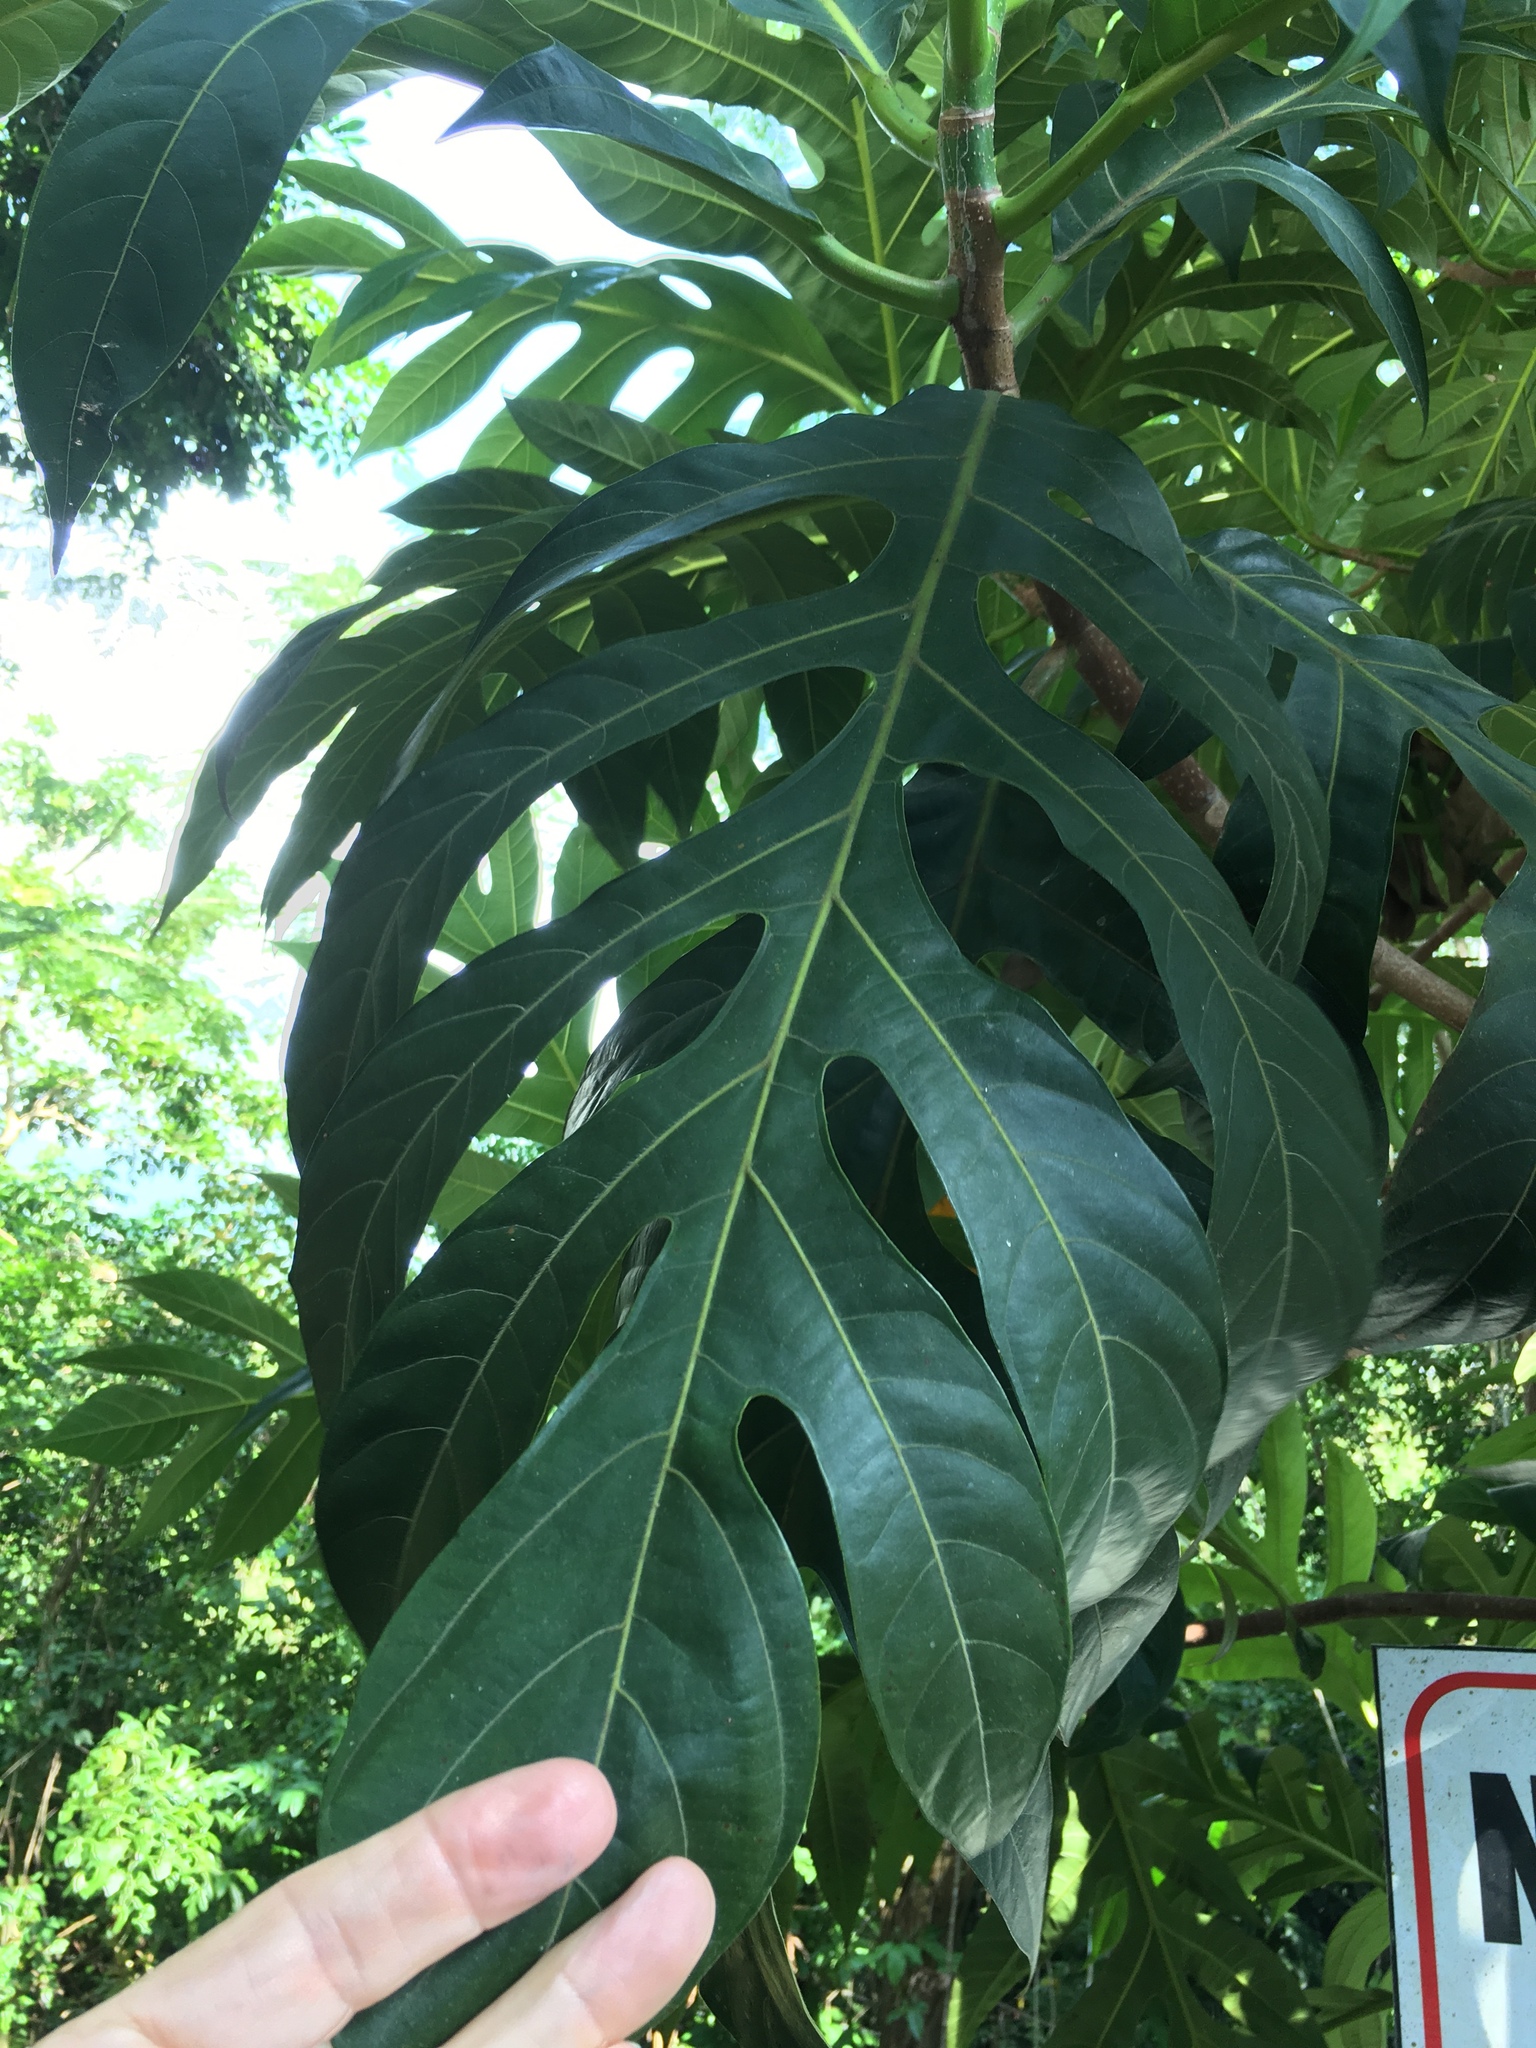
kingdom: Plantae
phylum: Tracheophyta
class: Magnoliopsida
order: Rosales
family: Moraceae
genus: Artocarpus
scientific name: Artocarpus altilis
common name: Breadfruit
